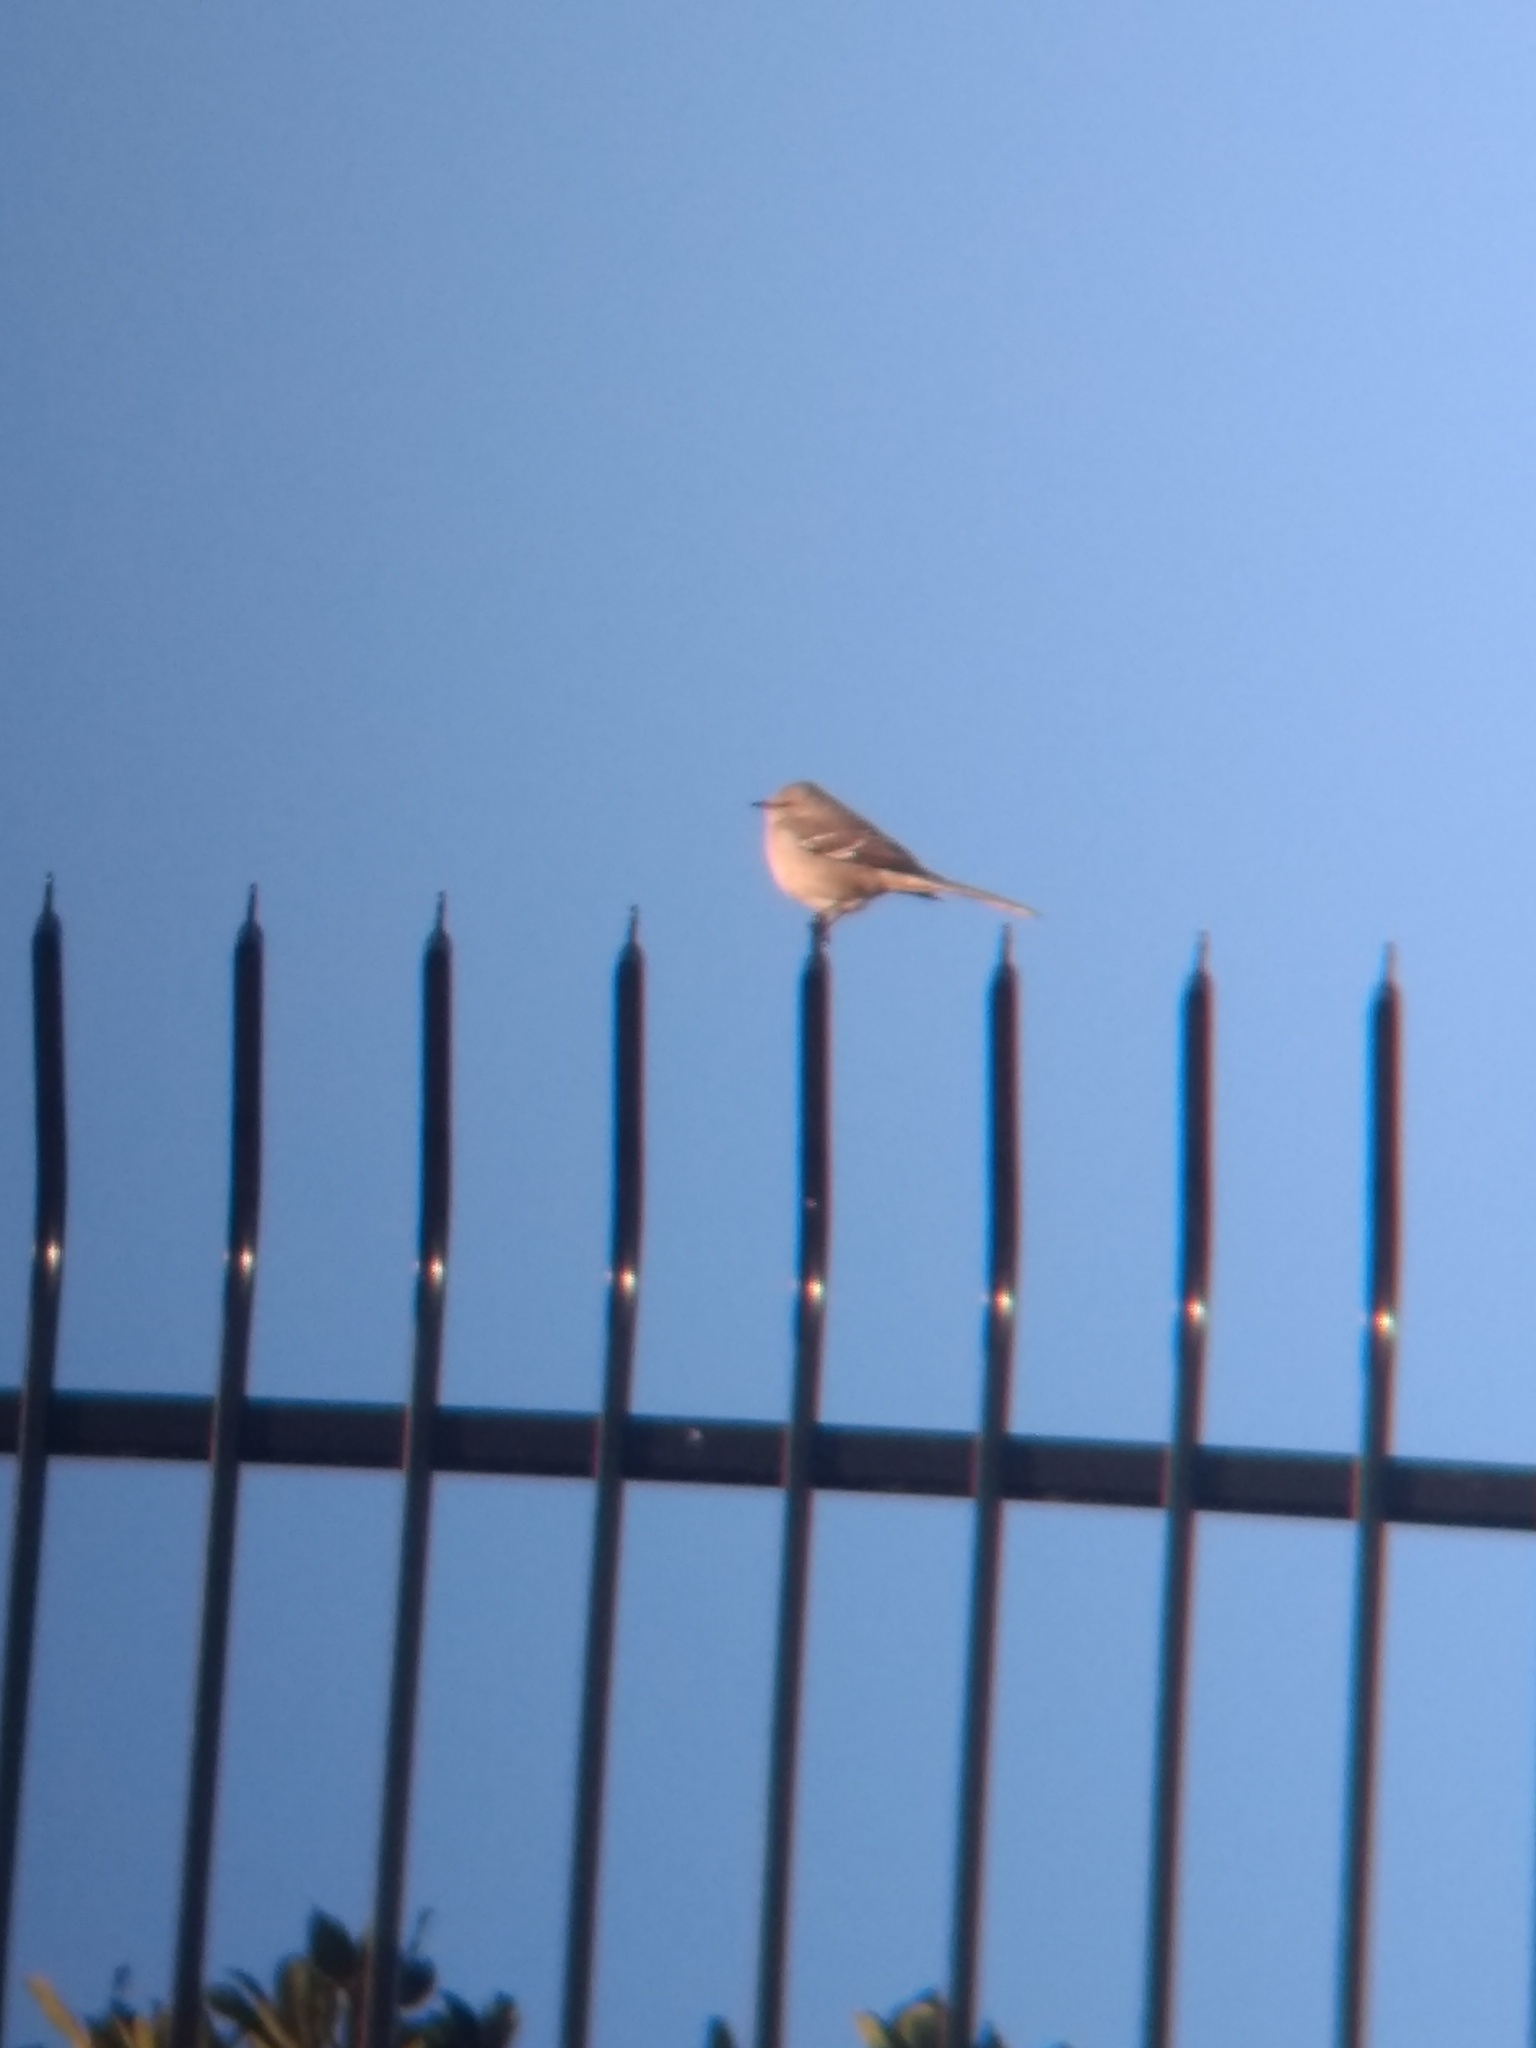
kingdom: Animalia
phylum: Chordata
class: Aves
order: Passeriformes
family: Mimidae
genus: Mimus
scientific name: Mimus polyglottos
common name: Northern mockingbird
